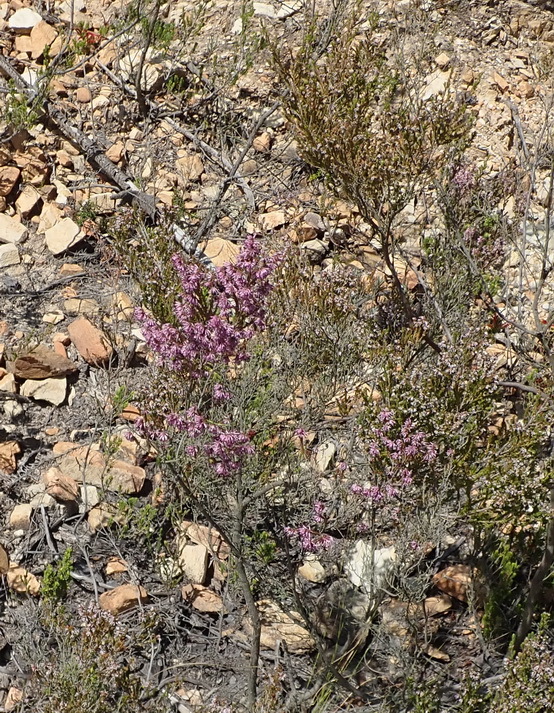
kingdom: Plantae
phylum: Tracheophyta
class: Magnoliopsida
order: Ericales
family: Ericaceae
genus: Erica
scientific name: Erica uberiflora
